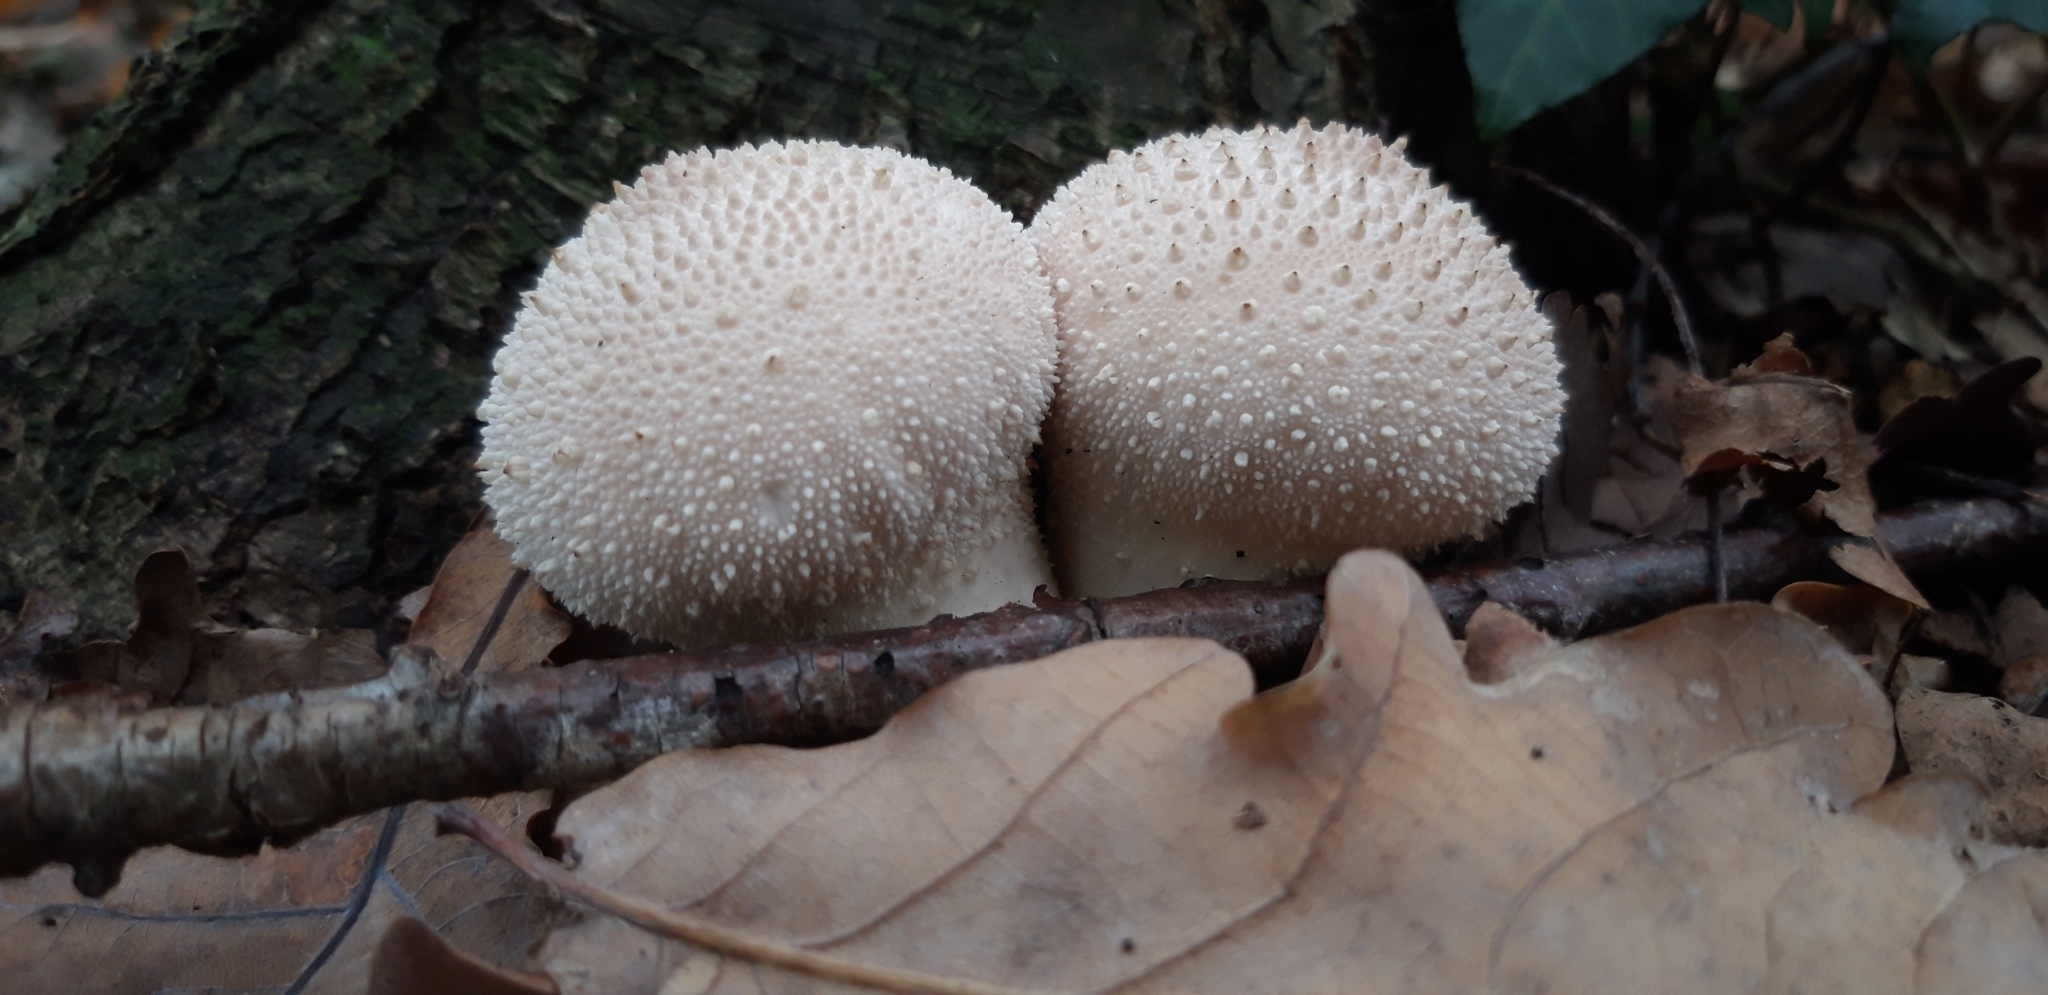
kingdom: Fungi
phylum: Basidiomycota
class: Agaricomycetes
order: Agaricales
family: Lycoperdaceae
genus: Lycoperdon
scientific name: Lycoperdon perlatum
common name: Common puffball
